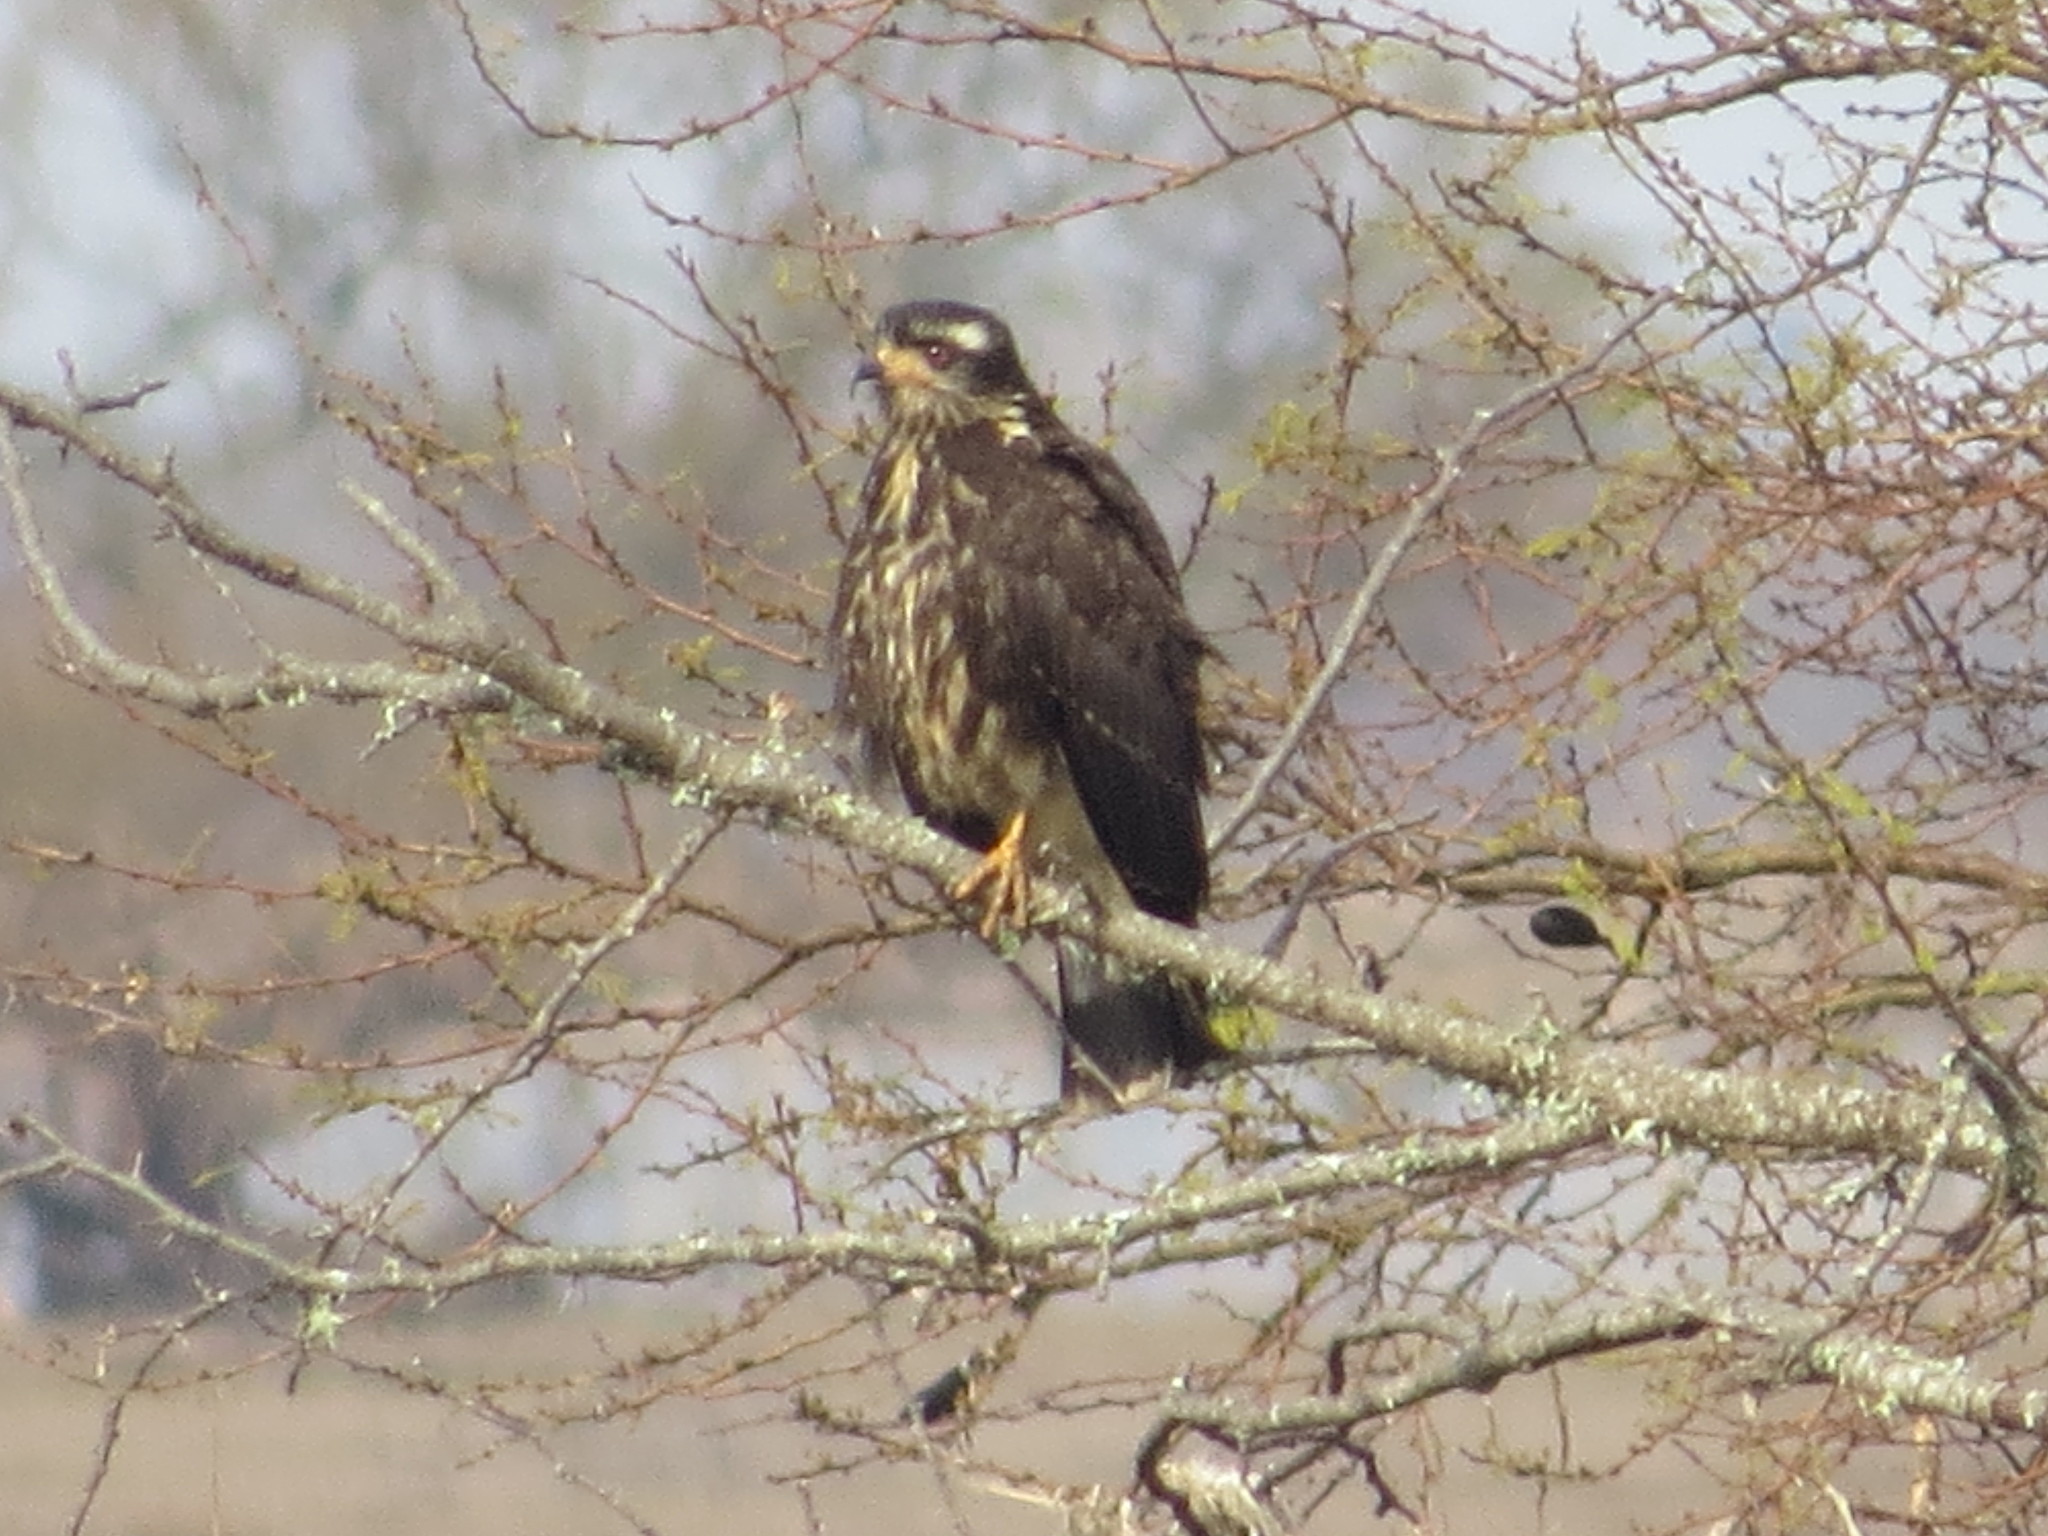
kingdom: Animalia
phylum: Chordata
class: Aves
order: Accipitriformes
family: Accipitridae
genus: Rostrhamus
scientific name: Rostrhamus sociabilis
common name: Snail kite
